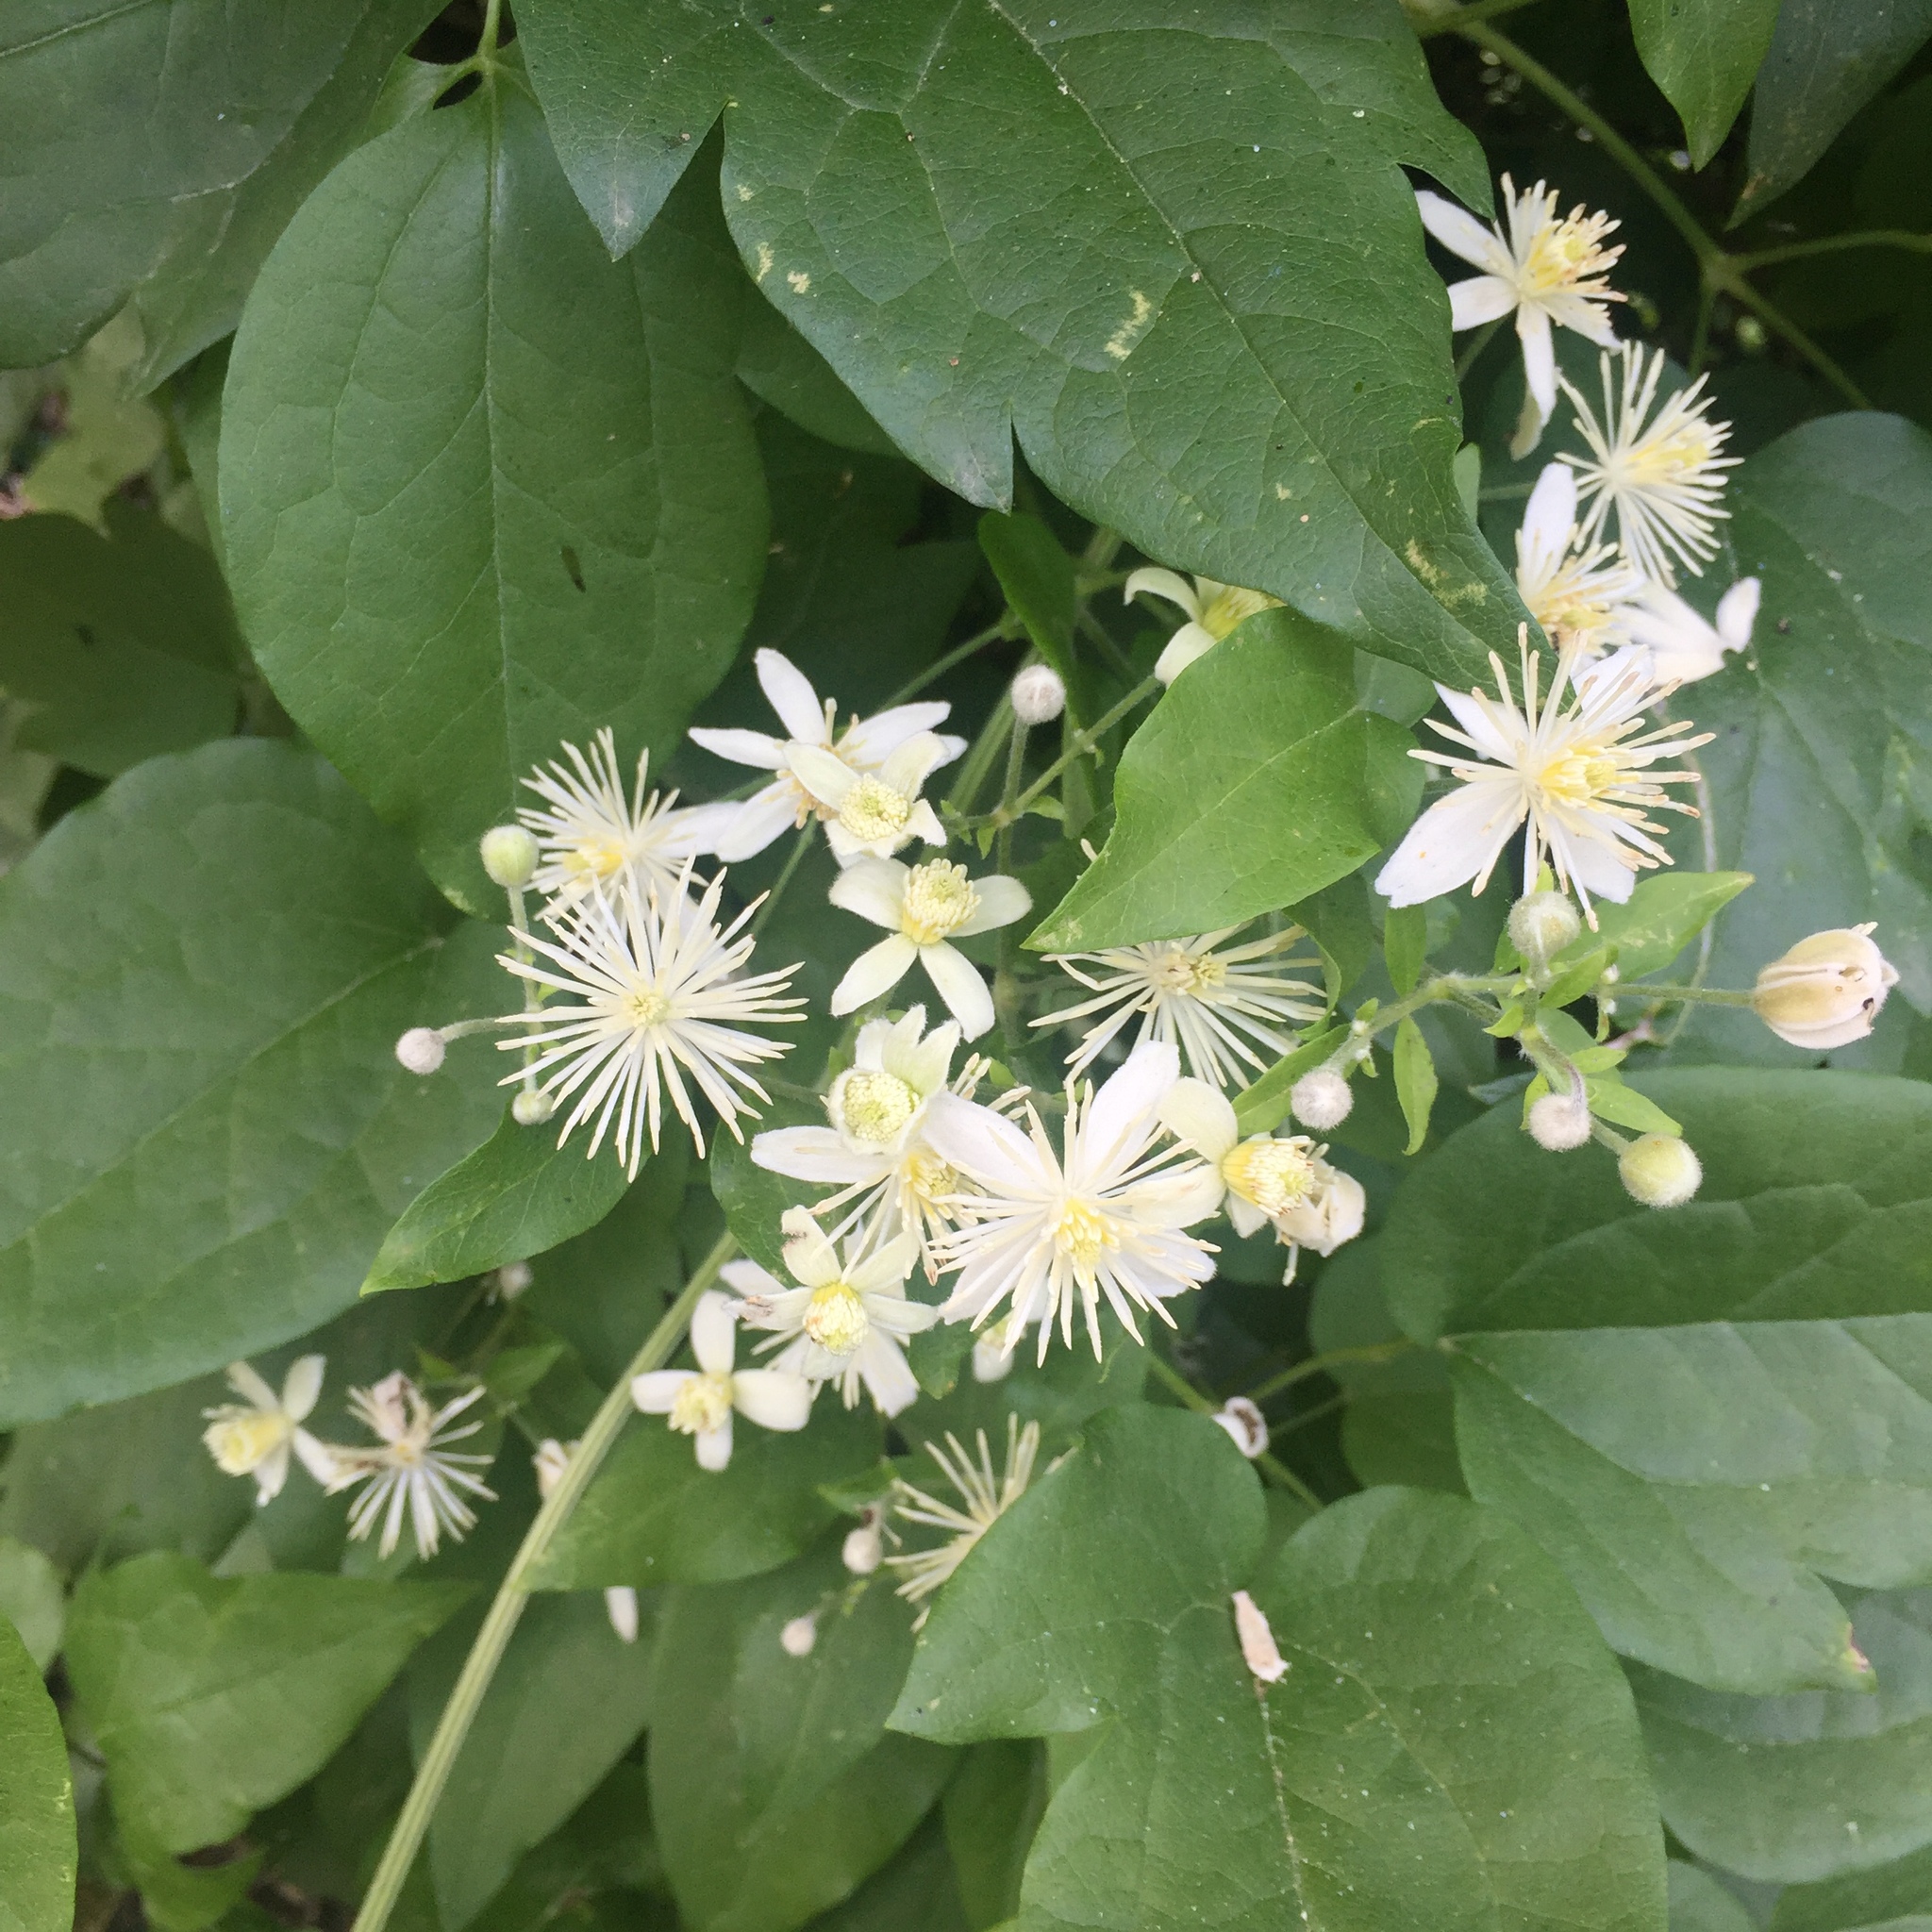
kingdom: Plantae
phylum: Tracheophyta
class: Magnoliopsida
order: Ranunculales
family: Ranunculaceae
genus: Clematis
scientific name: Clematis vitalba
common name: Evergreen clematis
